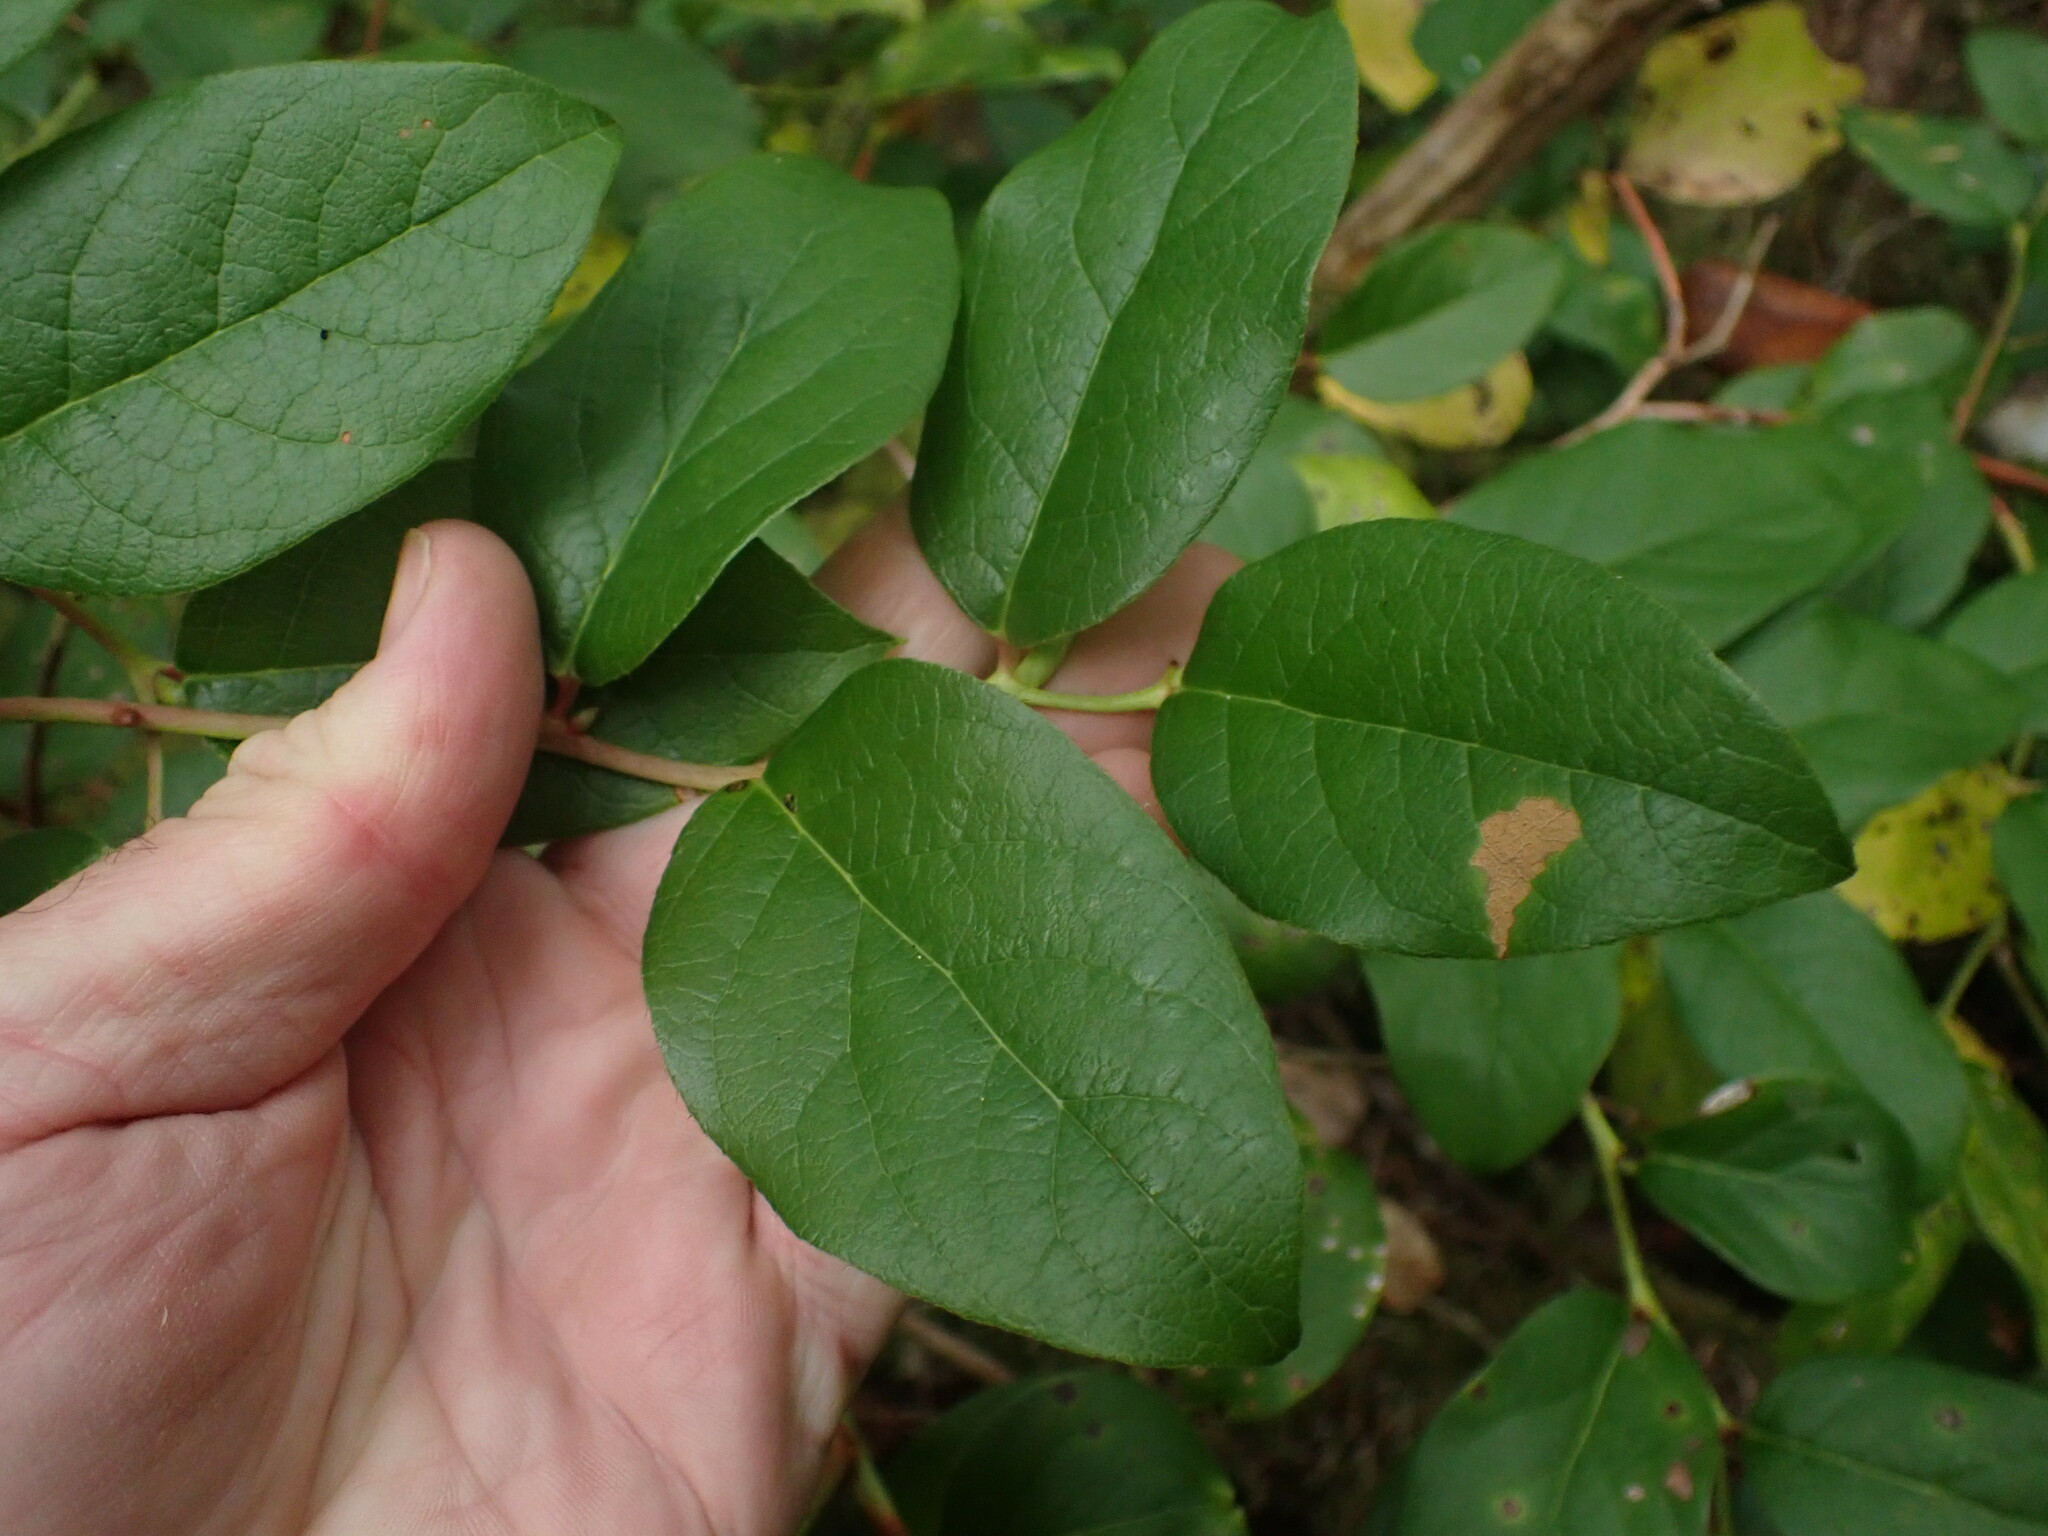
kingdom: Plantae
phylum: Tracheophyta
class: Magnoliopsida
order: Ericales
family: Ericaceae
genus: Gaultheria
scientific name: Gaultheria shallon
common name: Shallon
